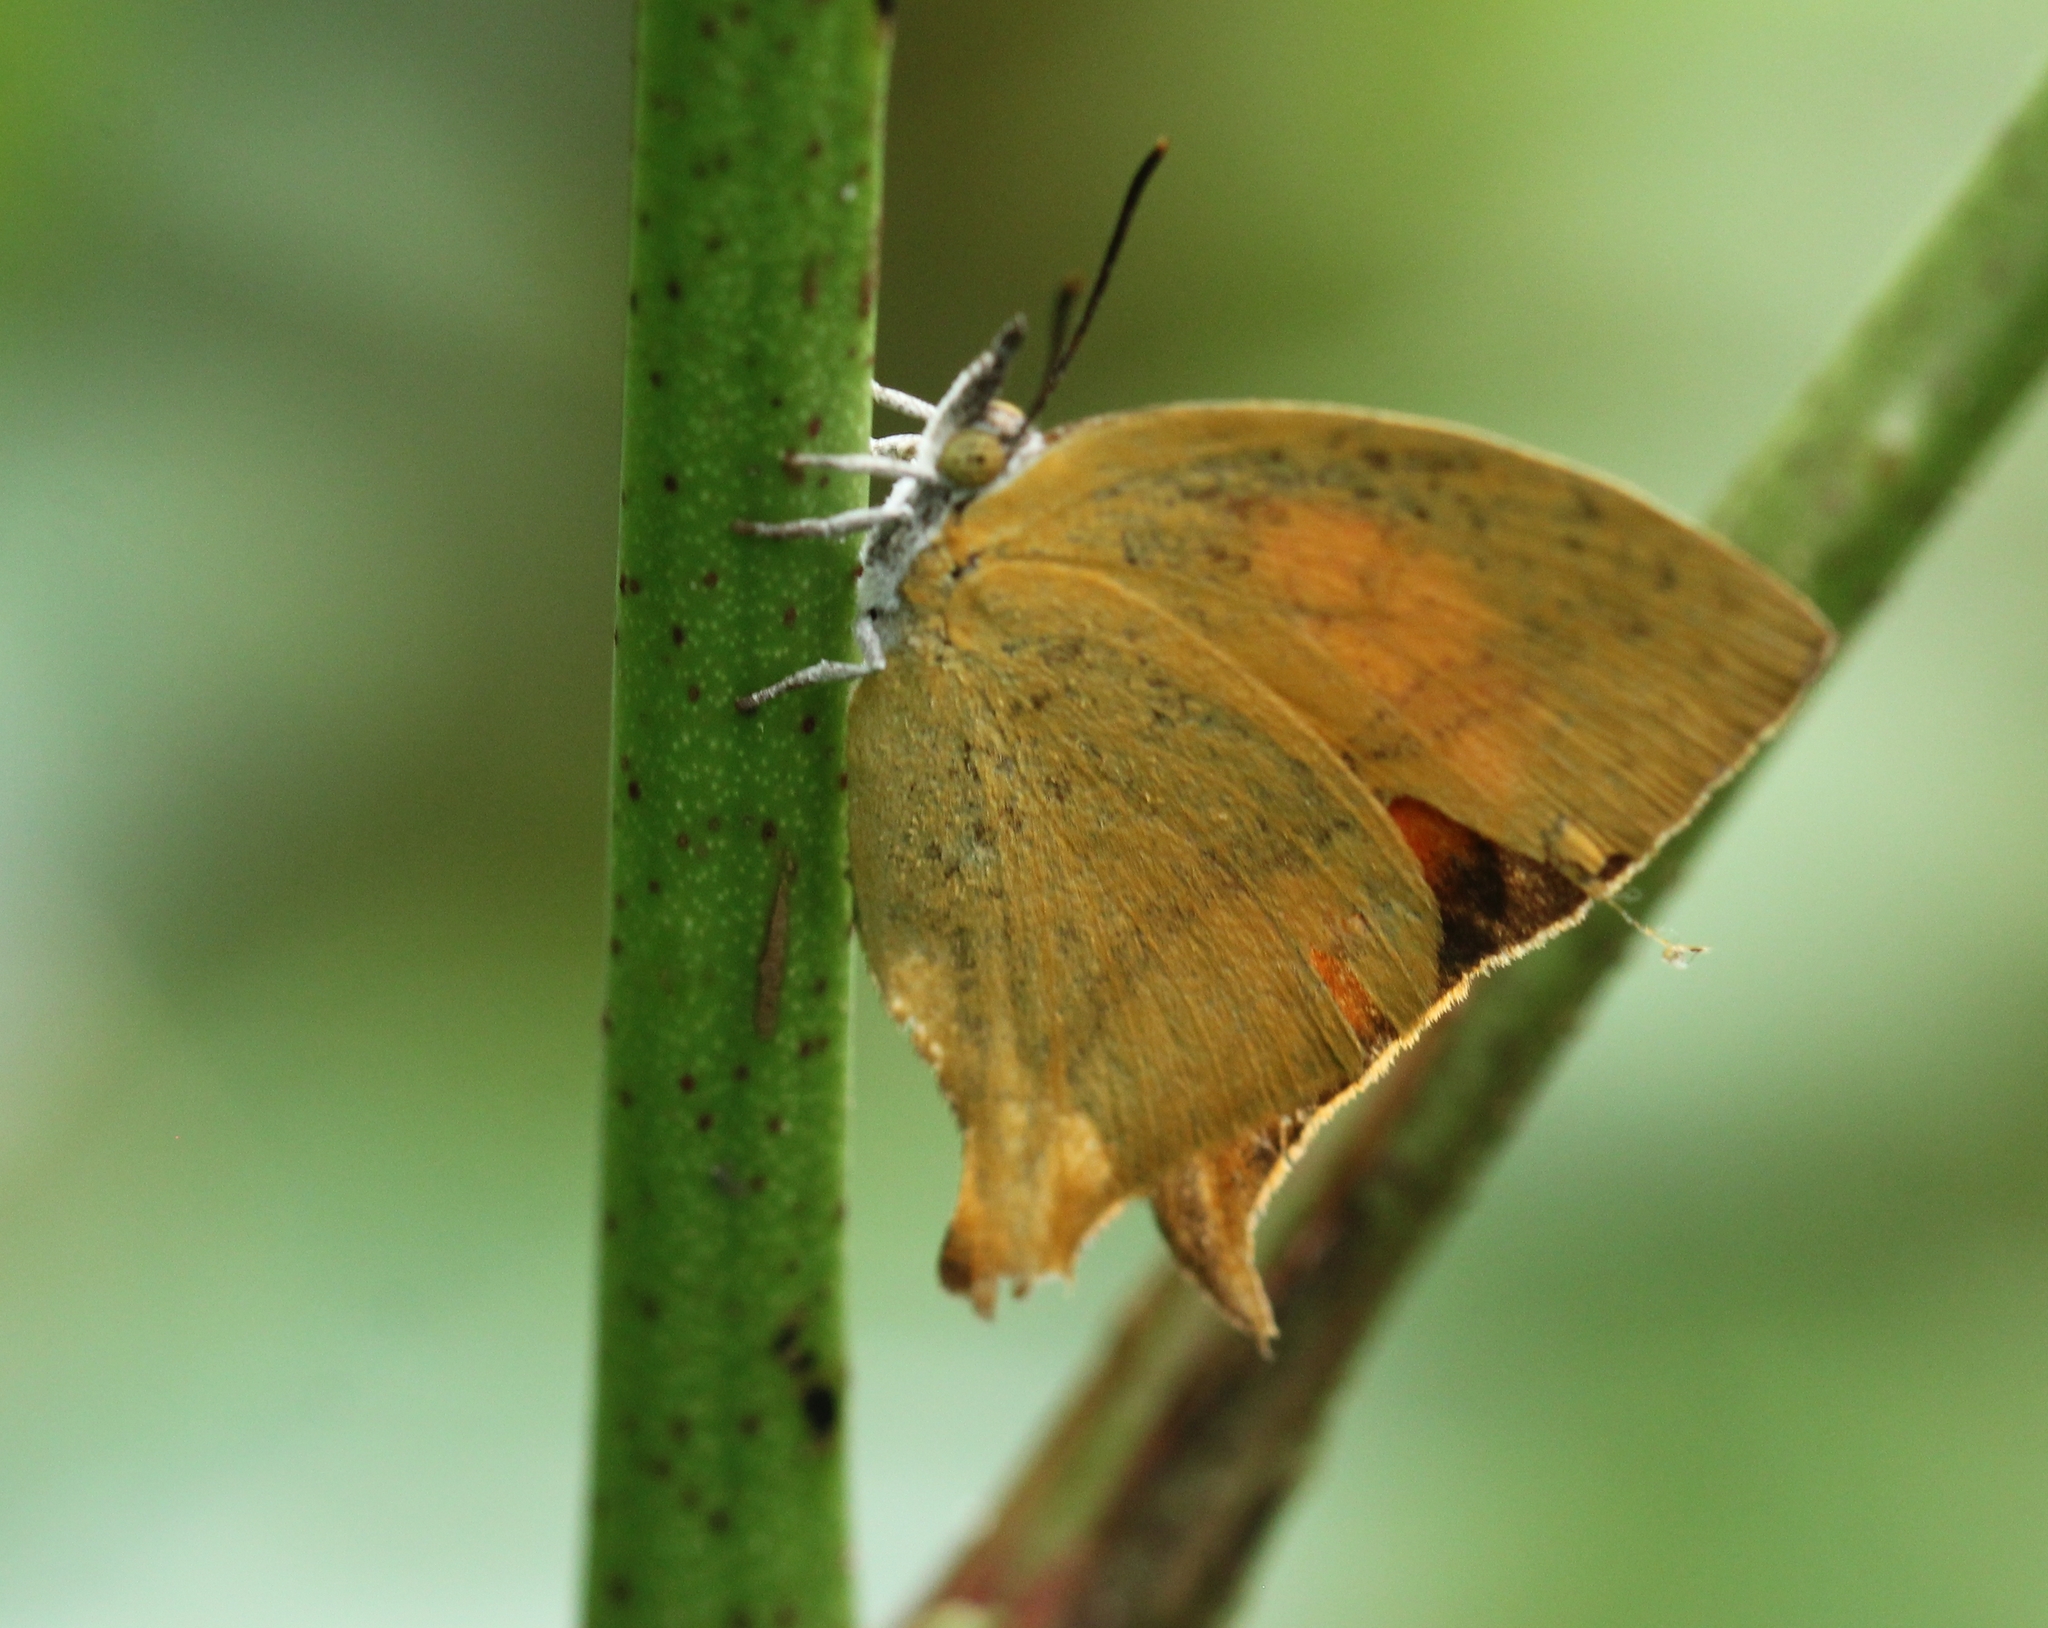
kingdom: Animalia
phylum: Arthropoda
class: Insecta
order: Lepidoptera
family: Lycaenidae
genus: Loxura
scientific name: Loxura atymnus
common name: Common yamfly
